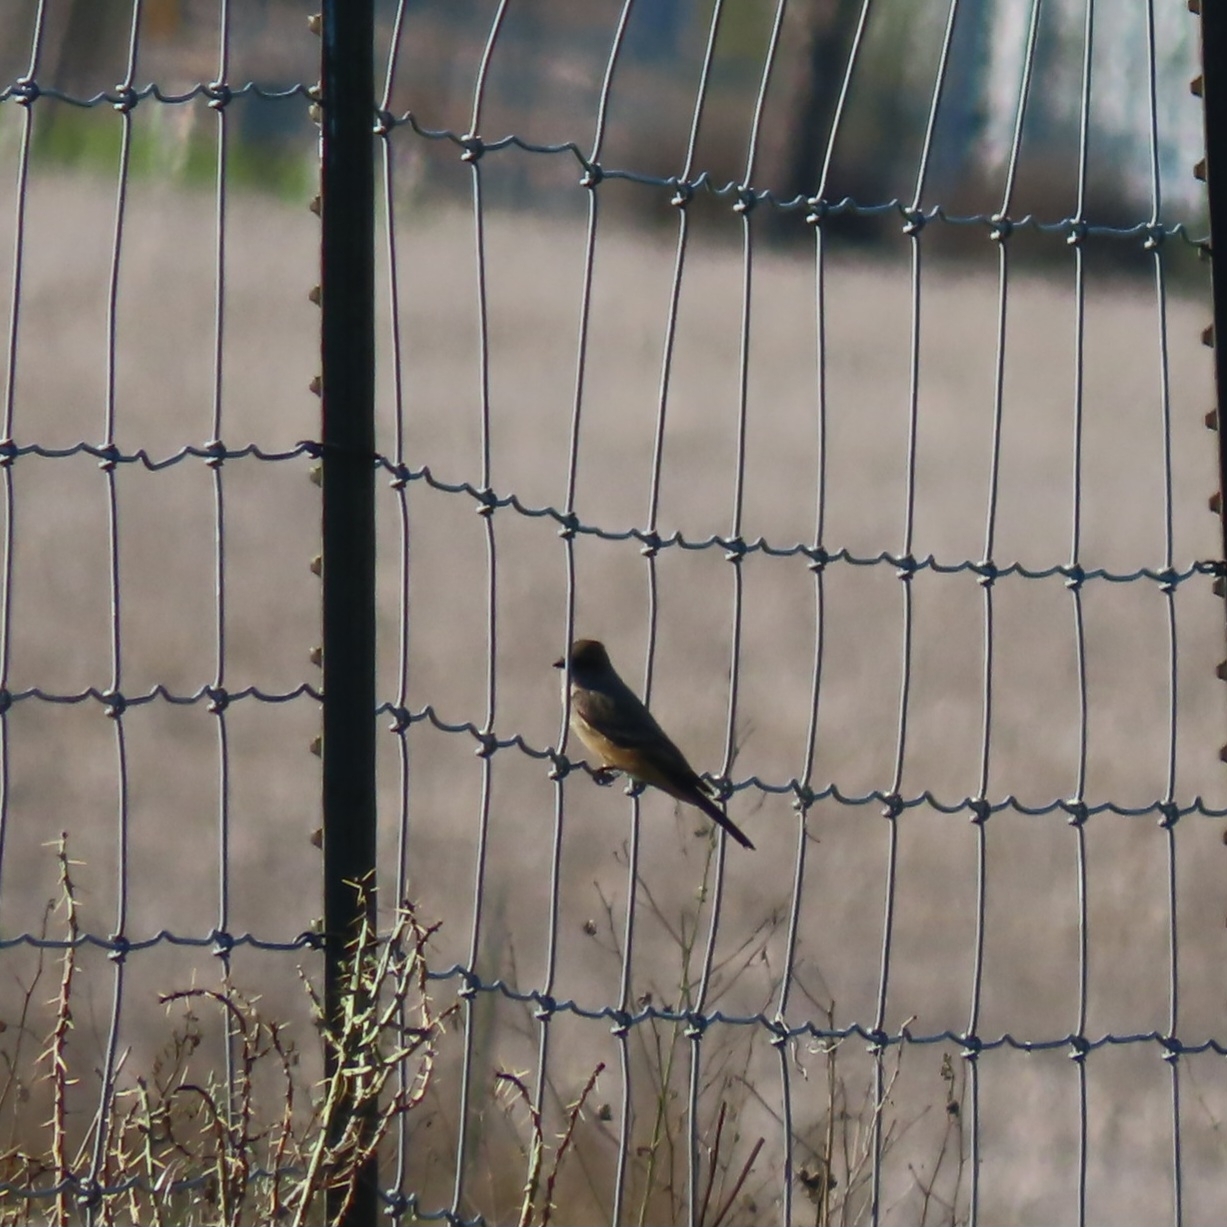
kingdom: Animalia
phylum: Chordata
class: Aves
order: Passeriformes
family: Tyrannidae
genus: Sayornis
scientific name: Sayornis saya
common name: Say's phoebe
